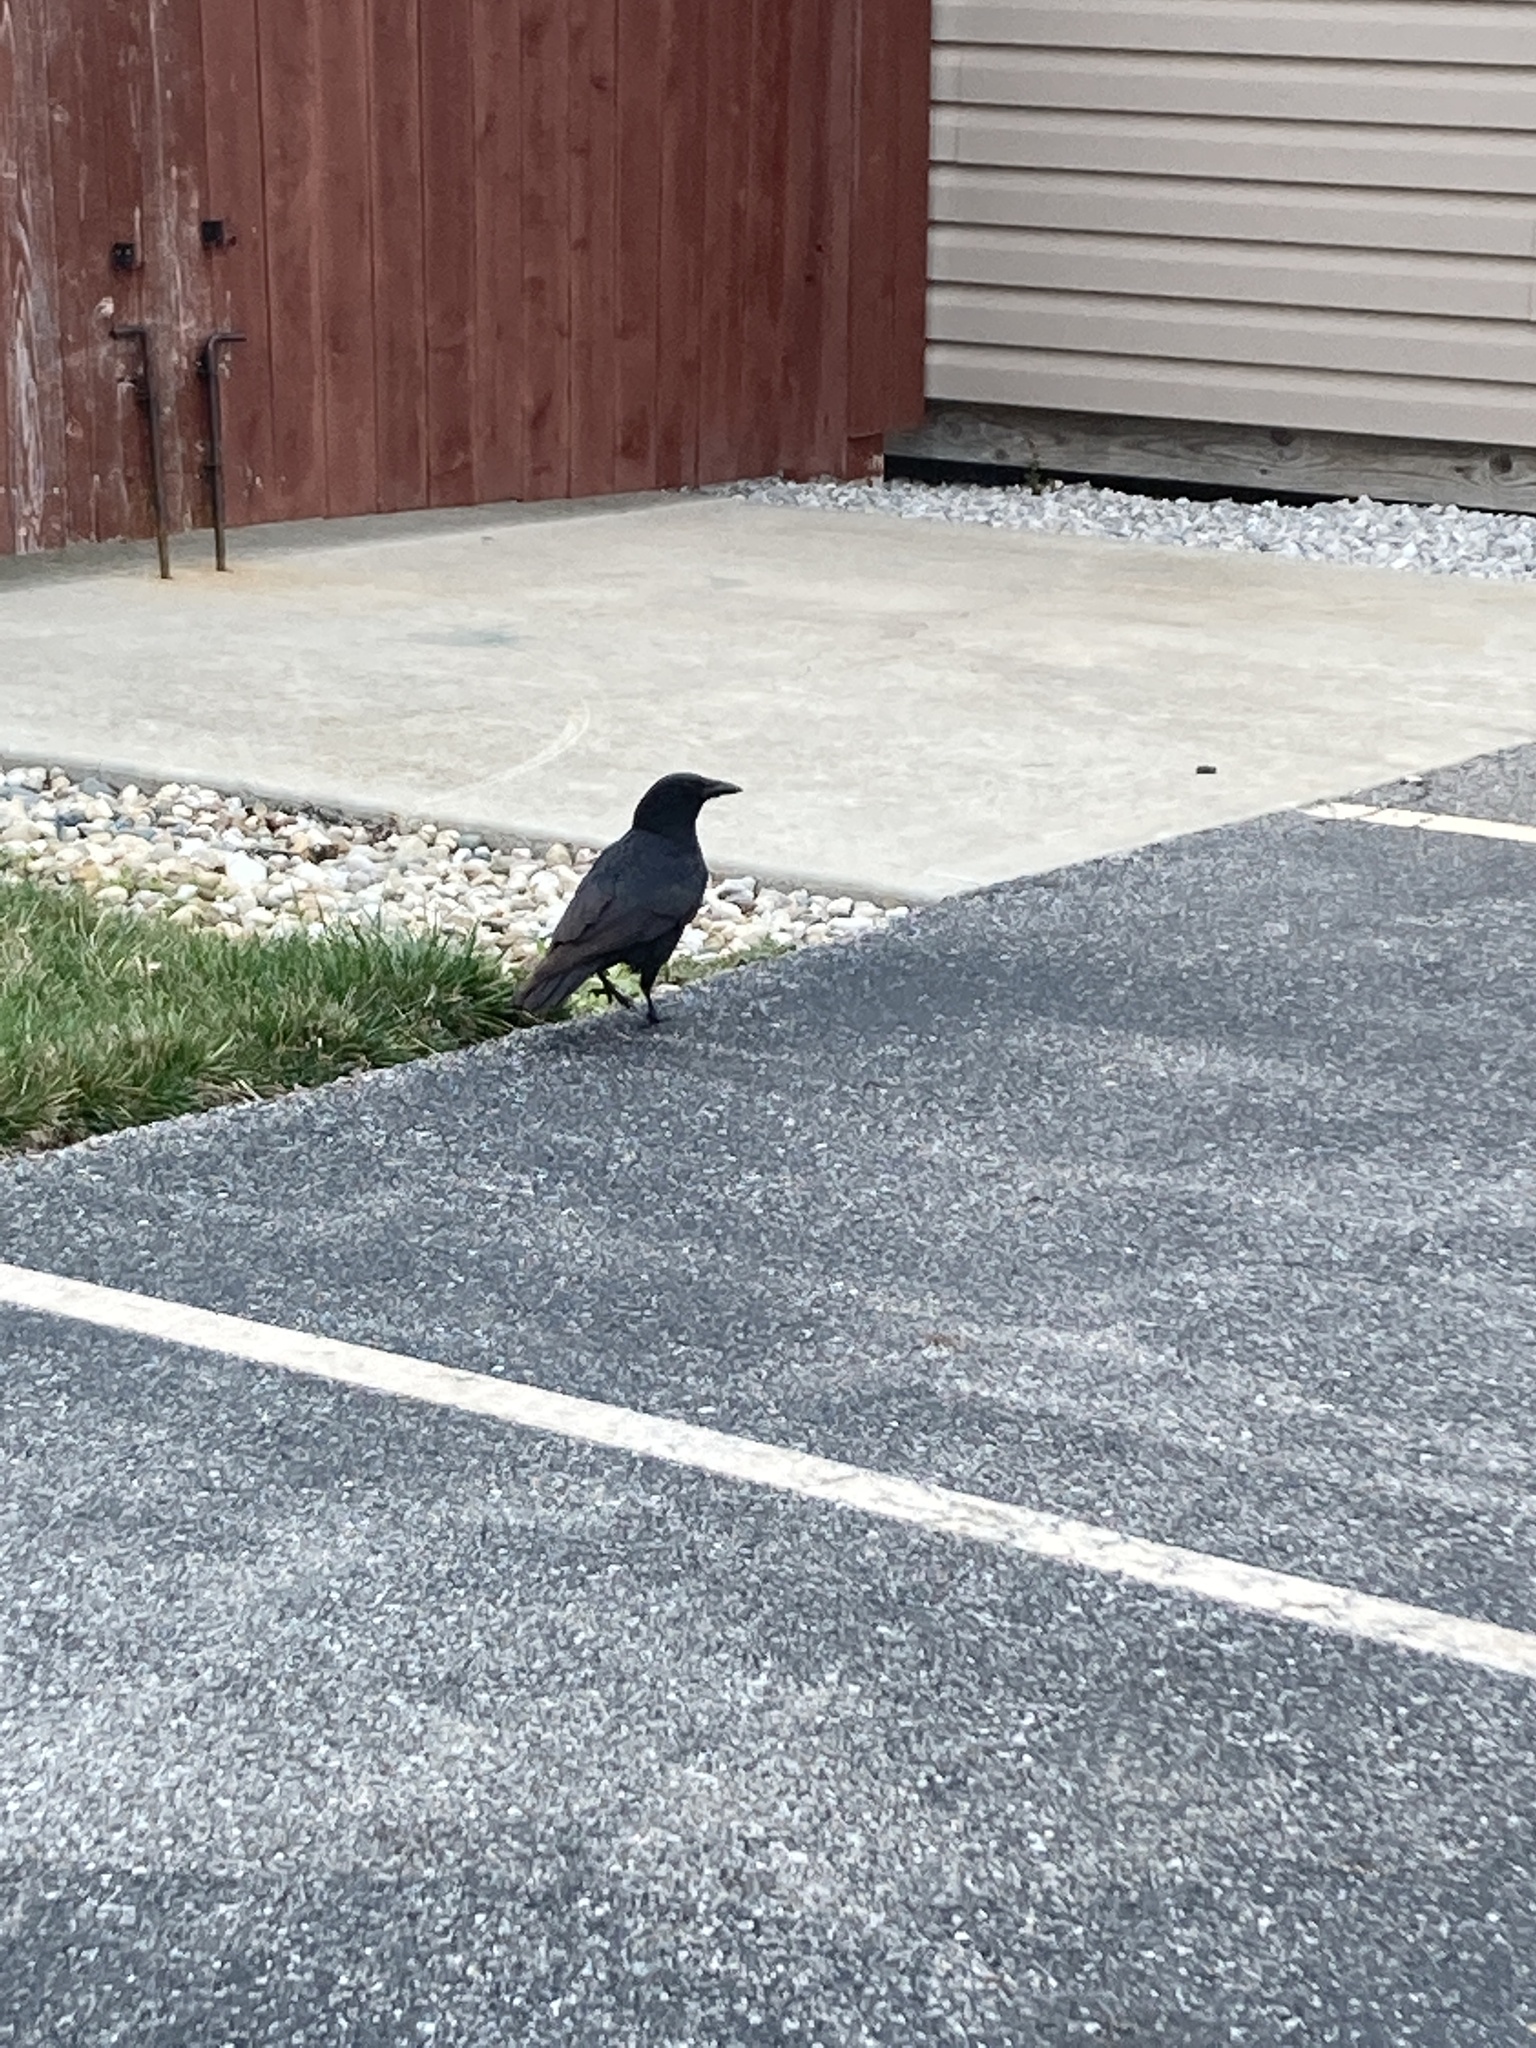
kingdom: Animalia
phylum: Chordata
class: Aves
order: Passeriformes
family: Corvidae
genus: Corvus
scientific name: Corvus brachyrhynchos
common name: American crow
